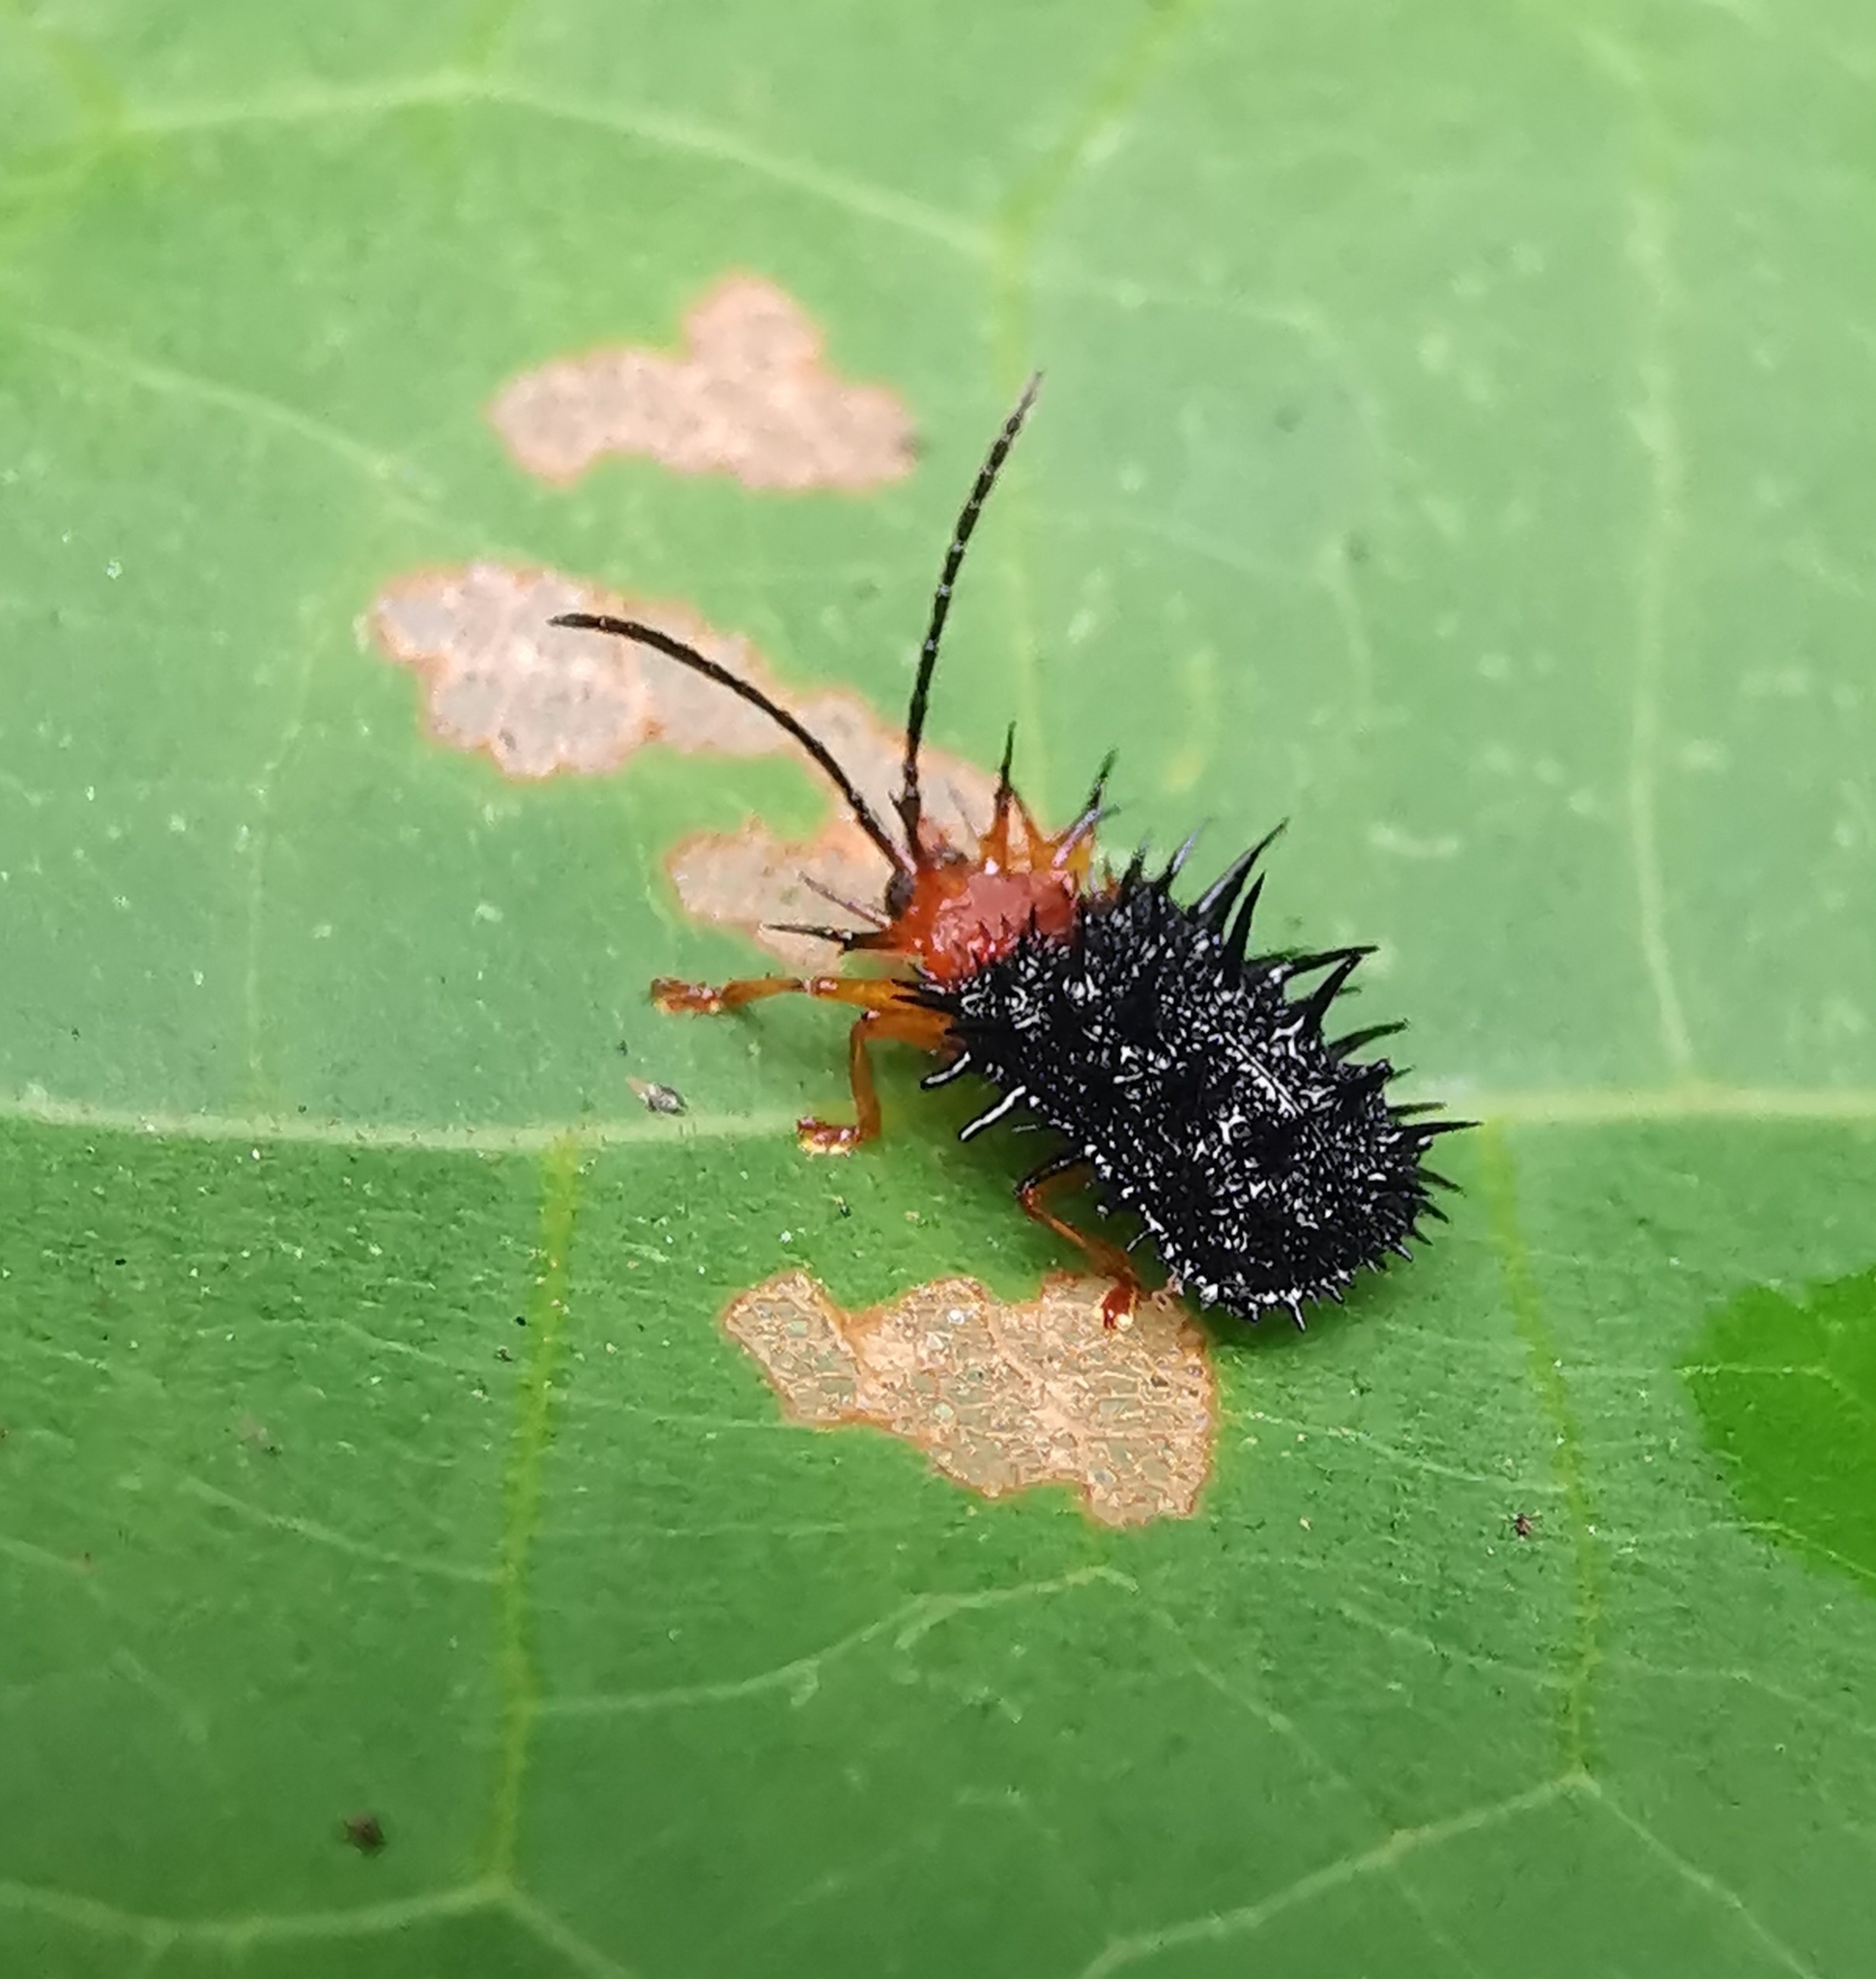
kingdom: Animalia
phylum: Arthropoda
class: Insecta
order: Coleoptera
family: Chrysomelidae
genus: Dactylispa
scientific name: Dactylispa bipartita
